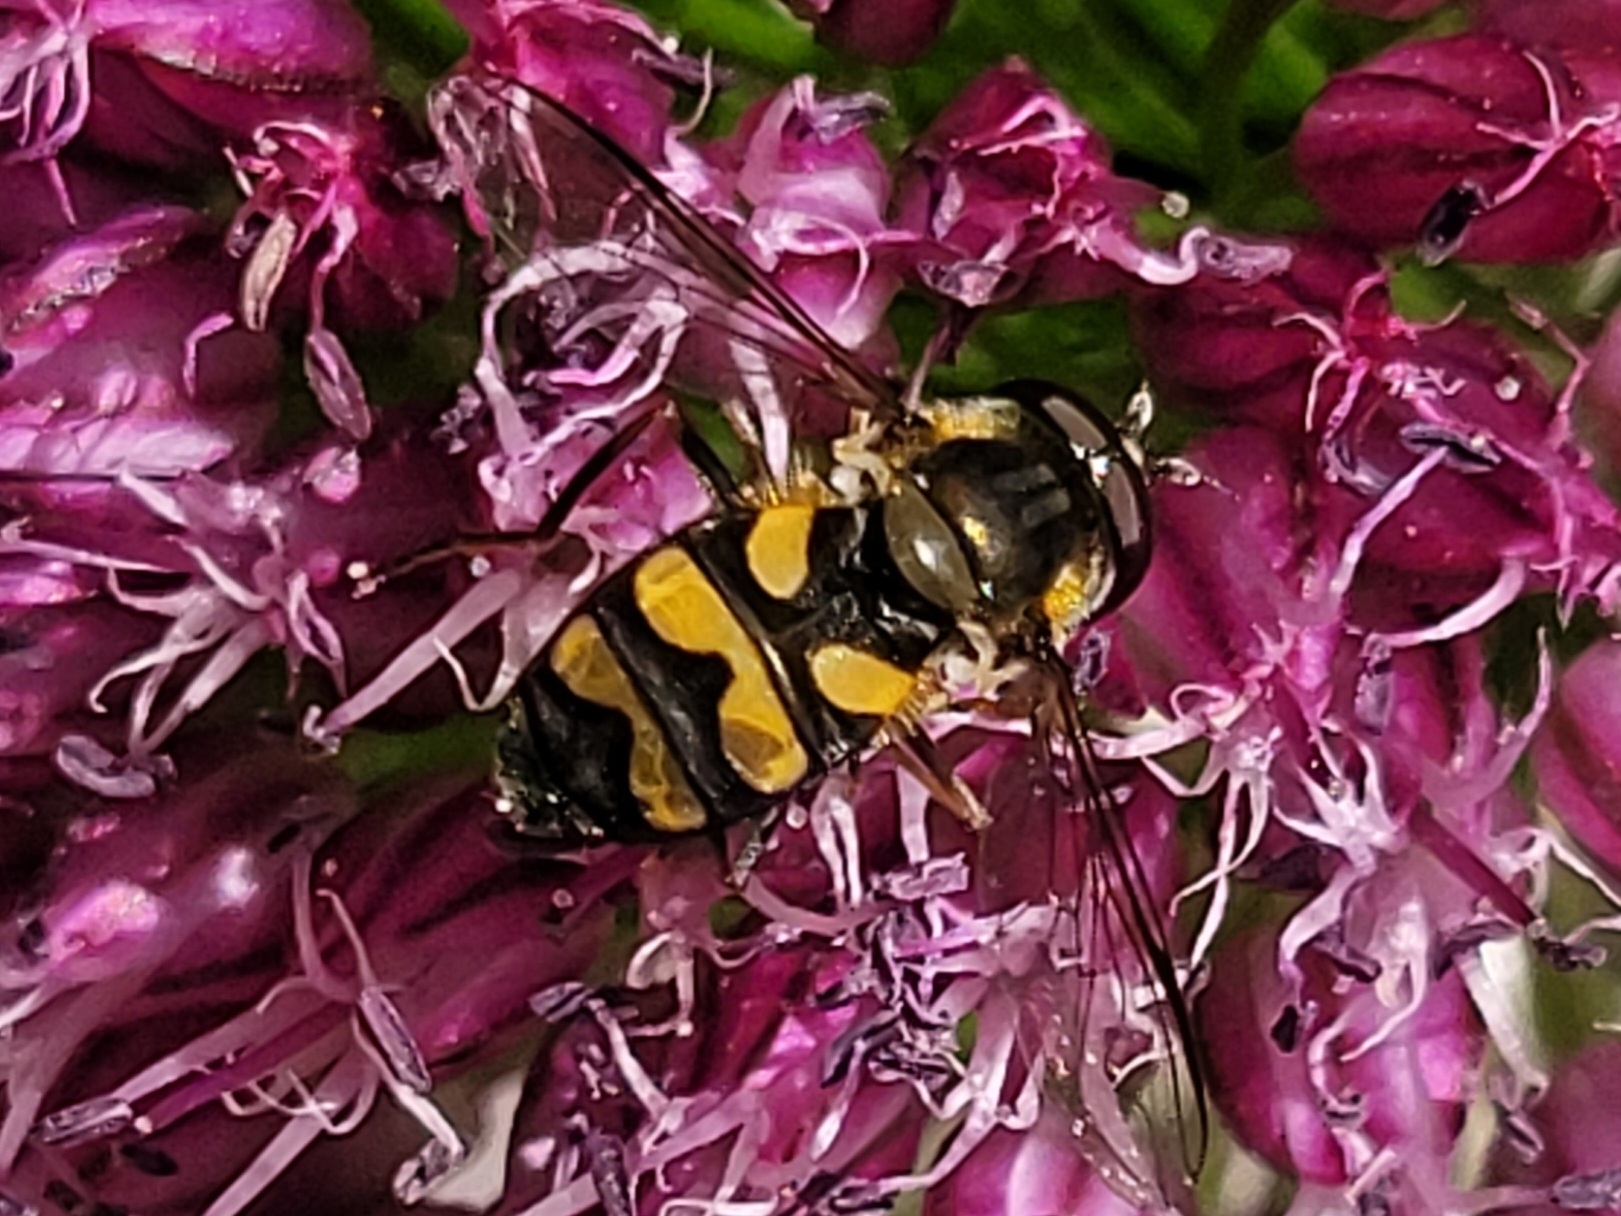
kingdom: Animalia
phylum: Arthropoda
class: Insecta
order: Diptera
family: Syrphidae
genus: Didea
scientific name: Didea fasciata
